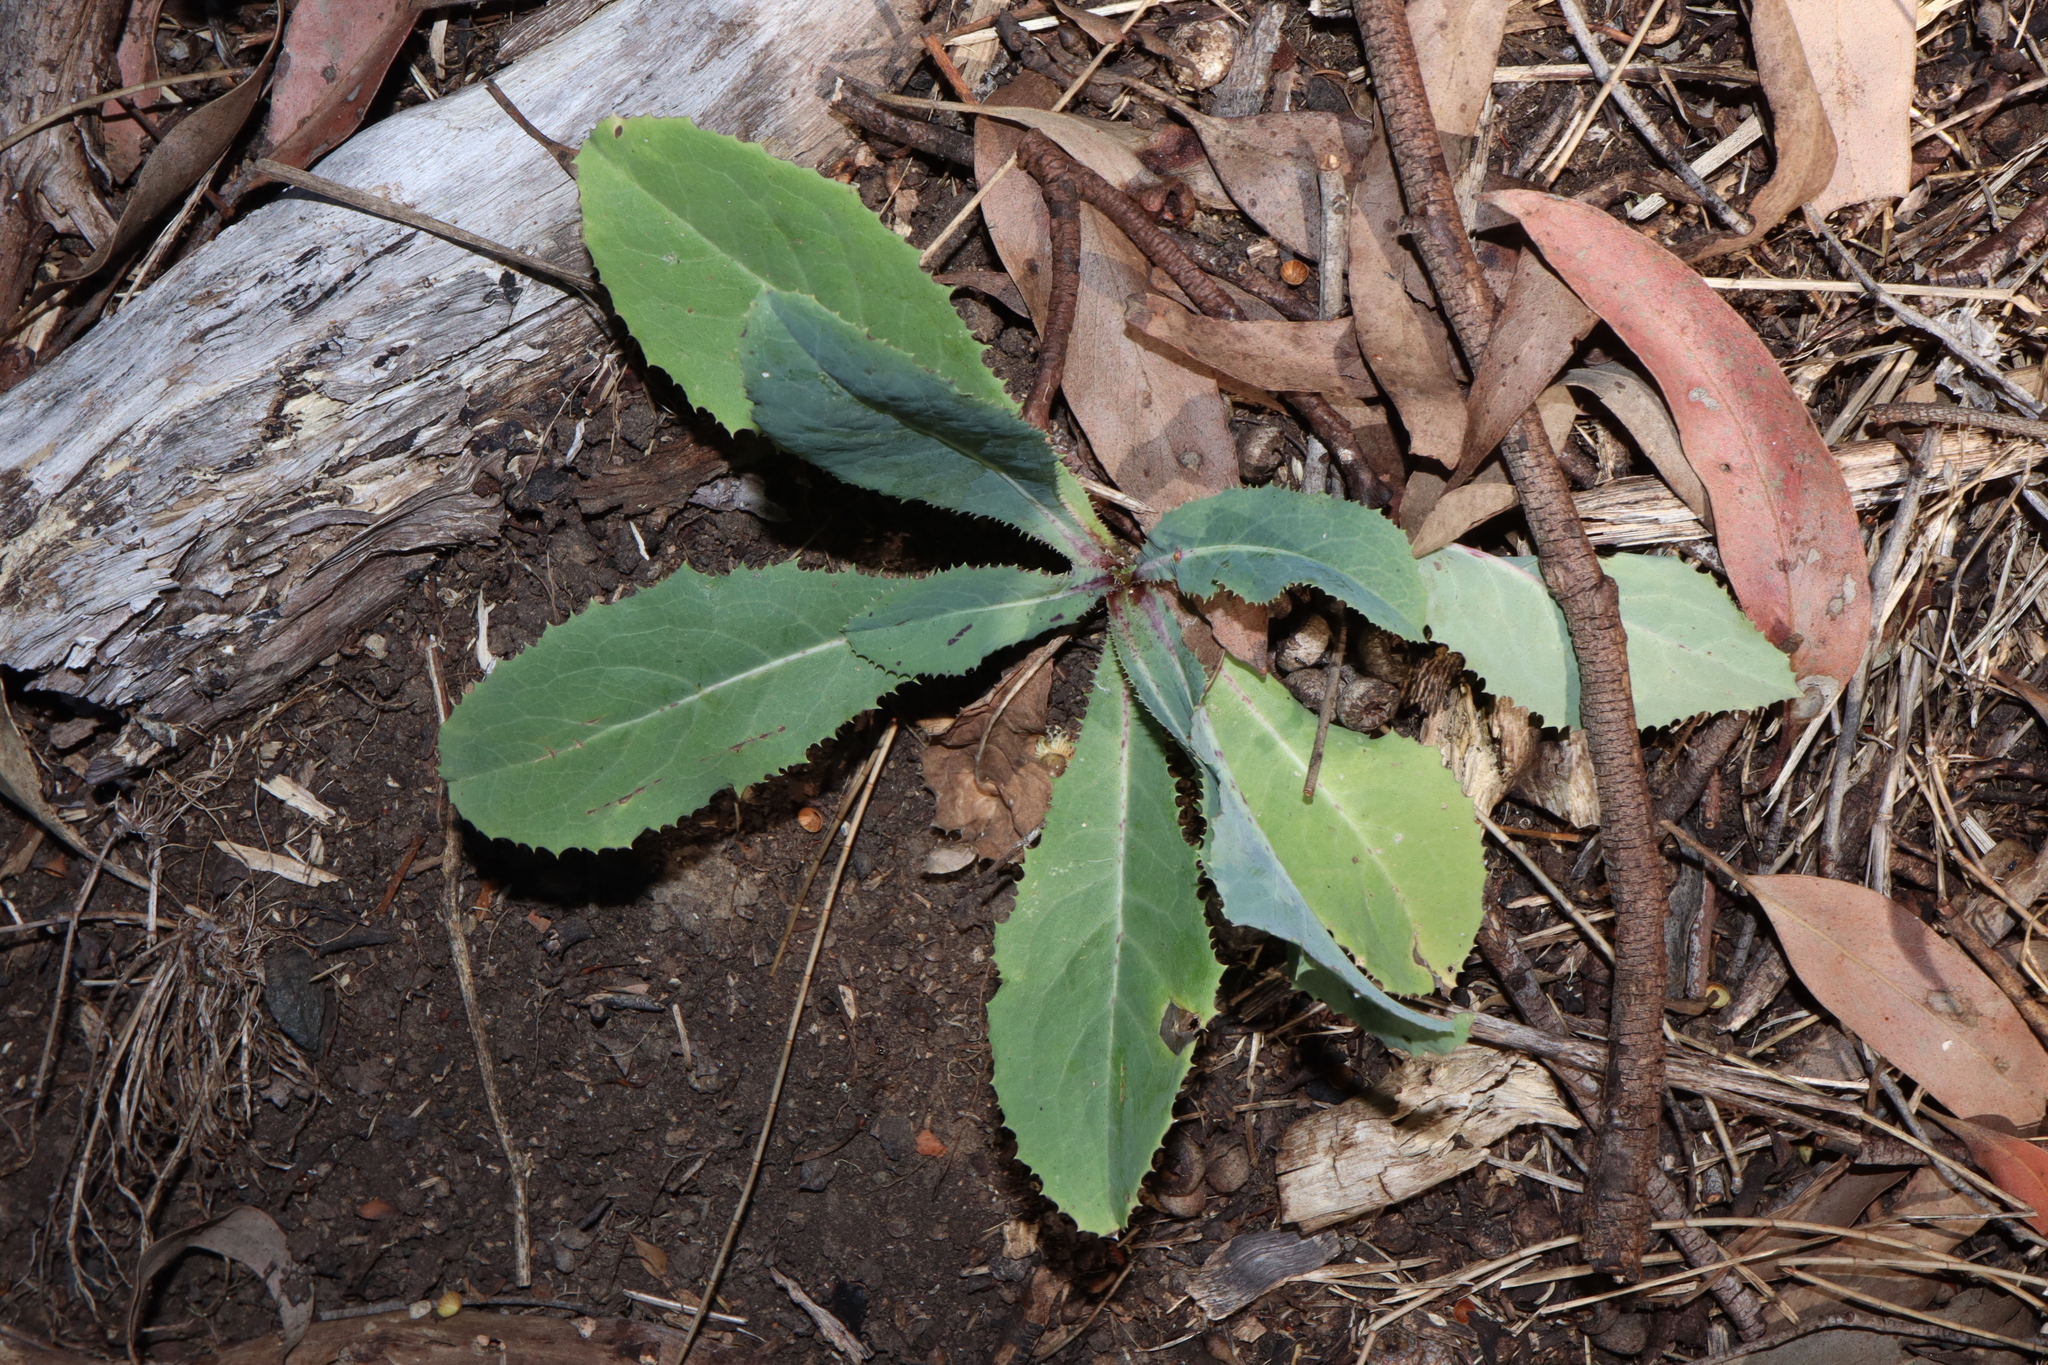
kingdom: Plantae
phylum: Tracheophyta
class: Magnoliopsida
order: Asterales
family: Asteraceae
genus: Lactuca
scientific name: Lactuca serriola
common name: Prickly lettuce
